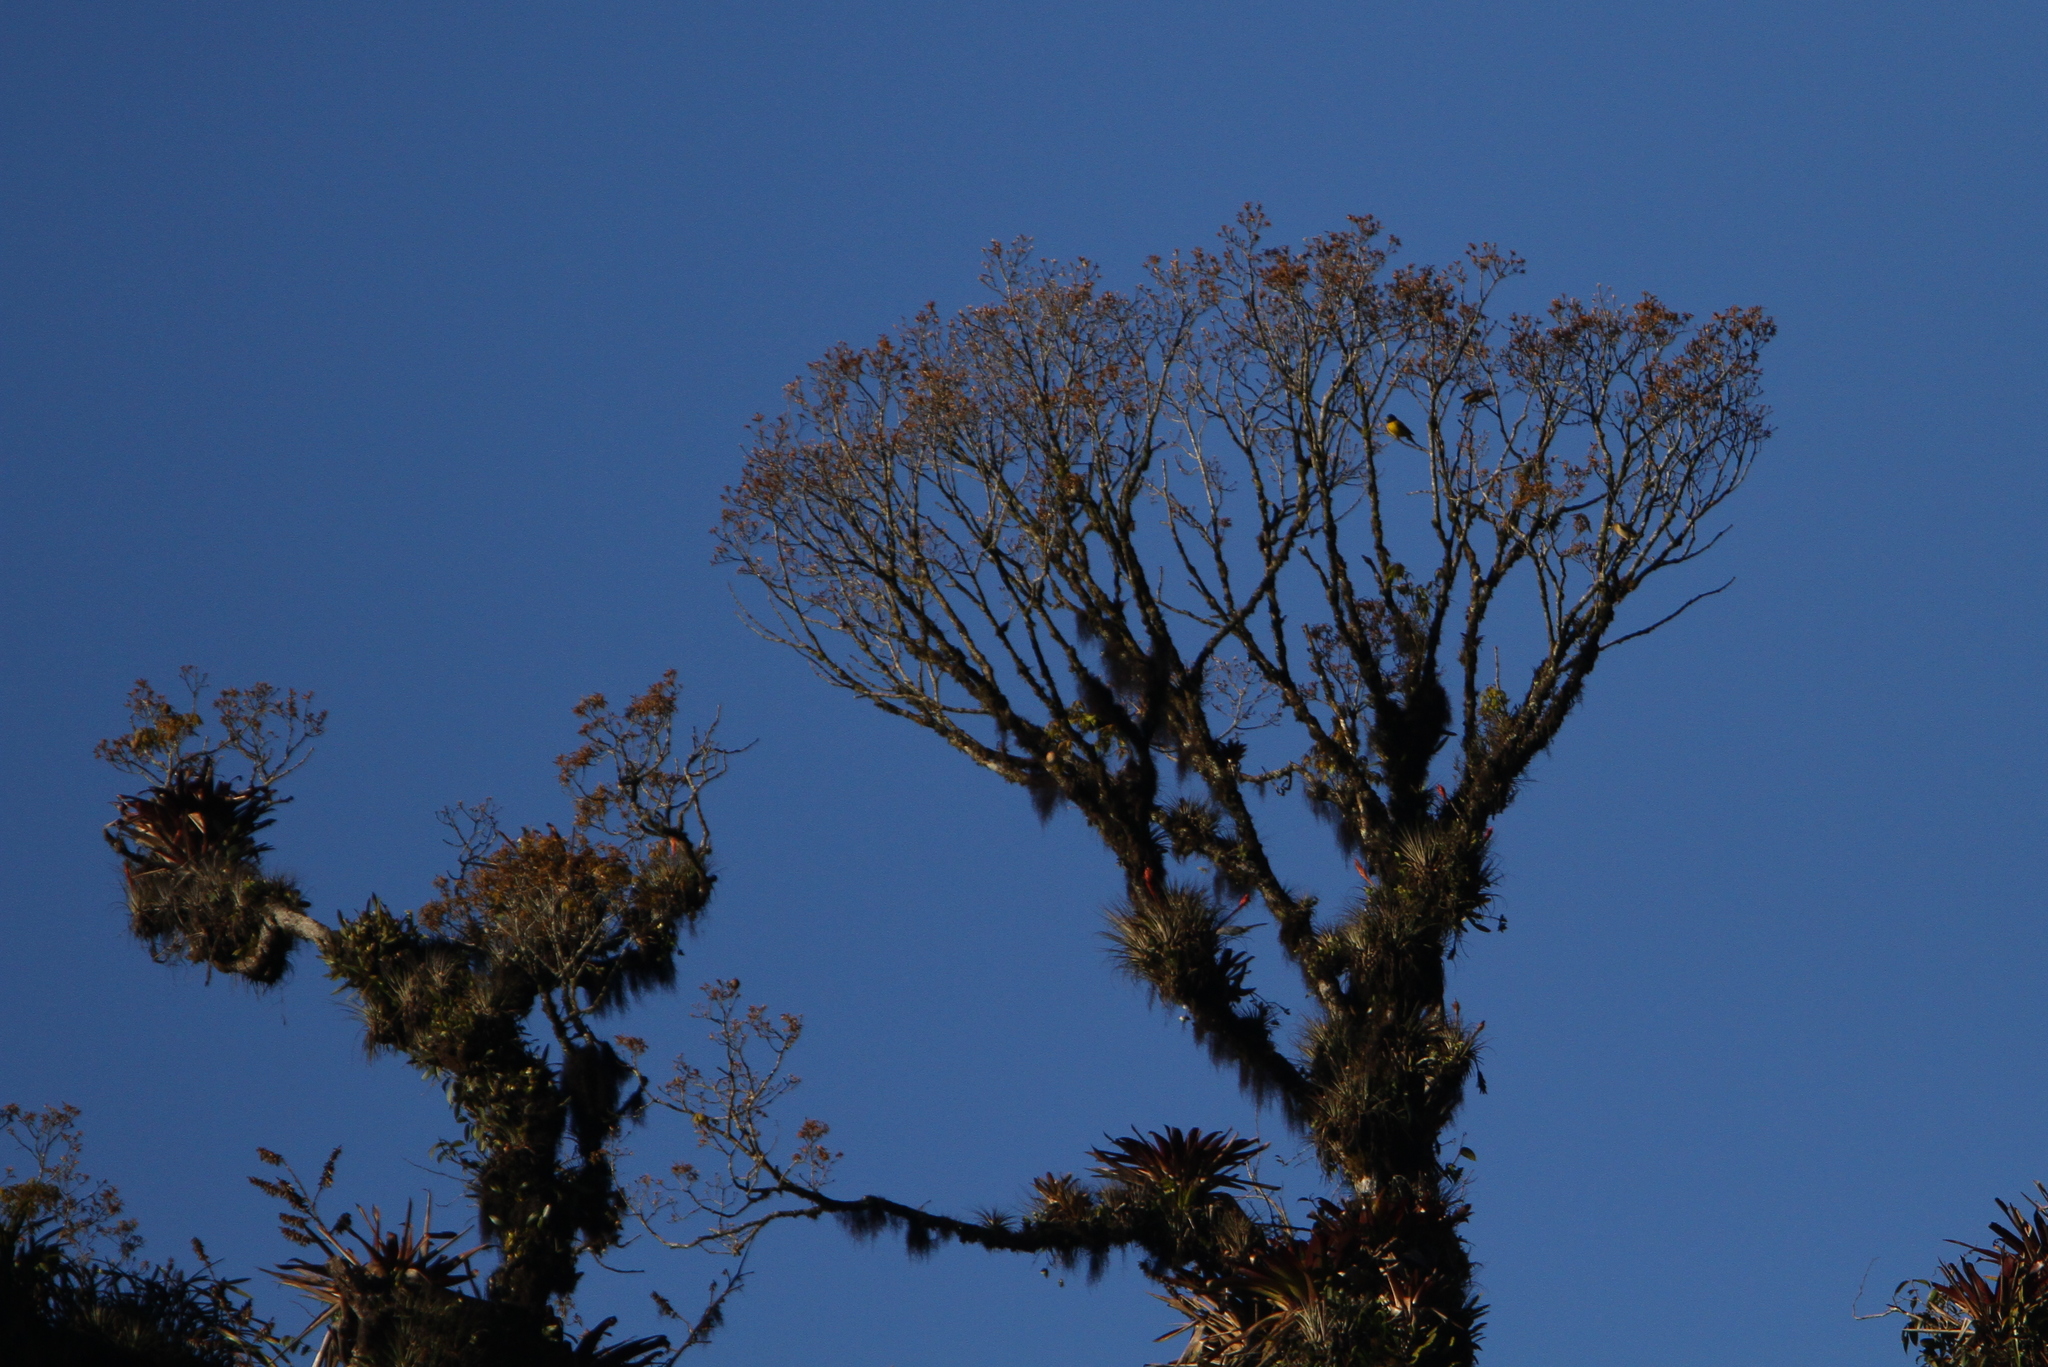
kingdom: Animalia
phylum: Chordata
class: Aves
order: Passeriformes
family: Fringillidae
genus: Hesperiphona
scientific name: Hesperiphona abeillei
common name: Hooded grosbeak
